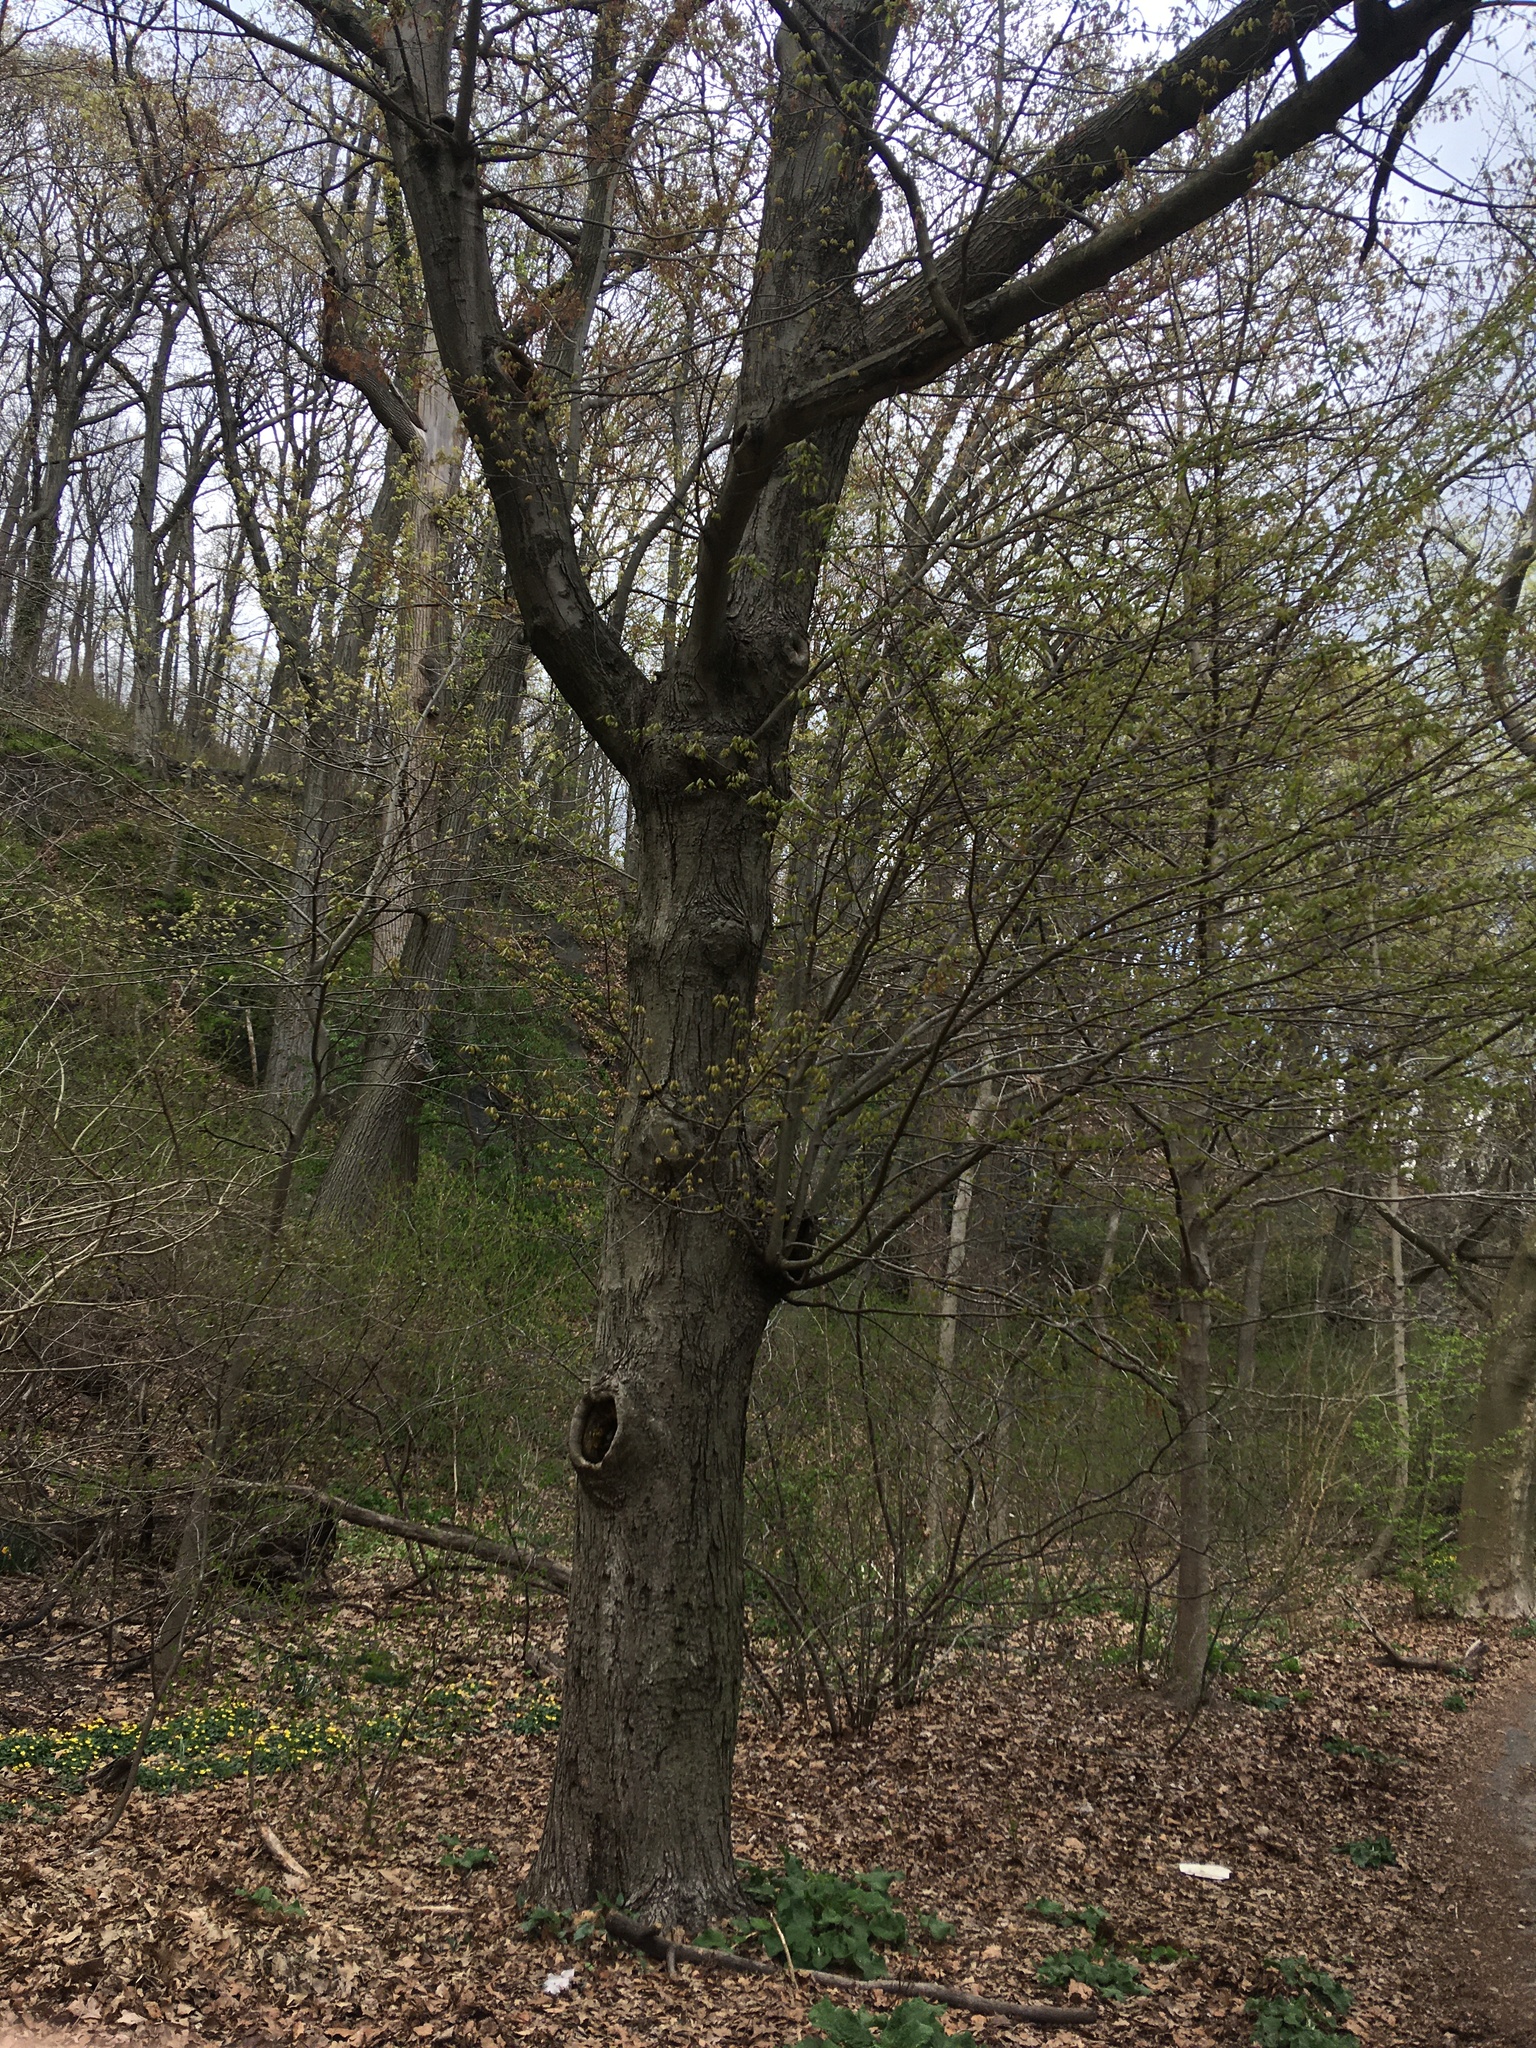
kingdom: Plantae
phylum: Tracheophyta
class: Magnoliopsida
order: Sapindales
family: Sapindaceae
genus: Acer
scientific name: Acer rubrum
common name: Red maple
